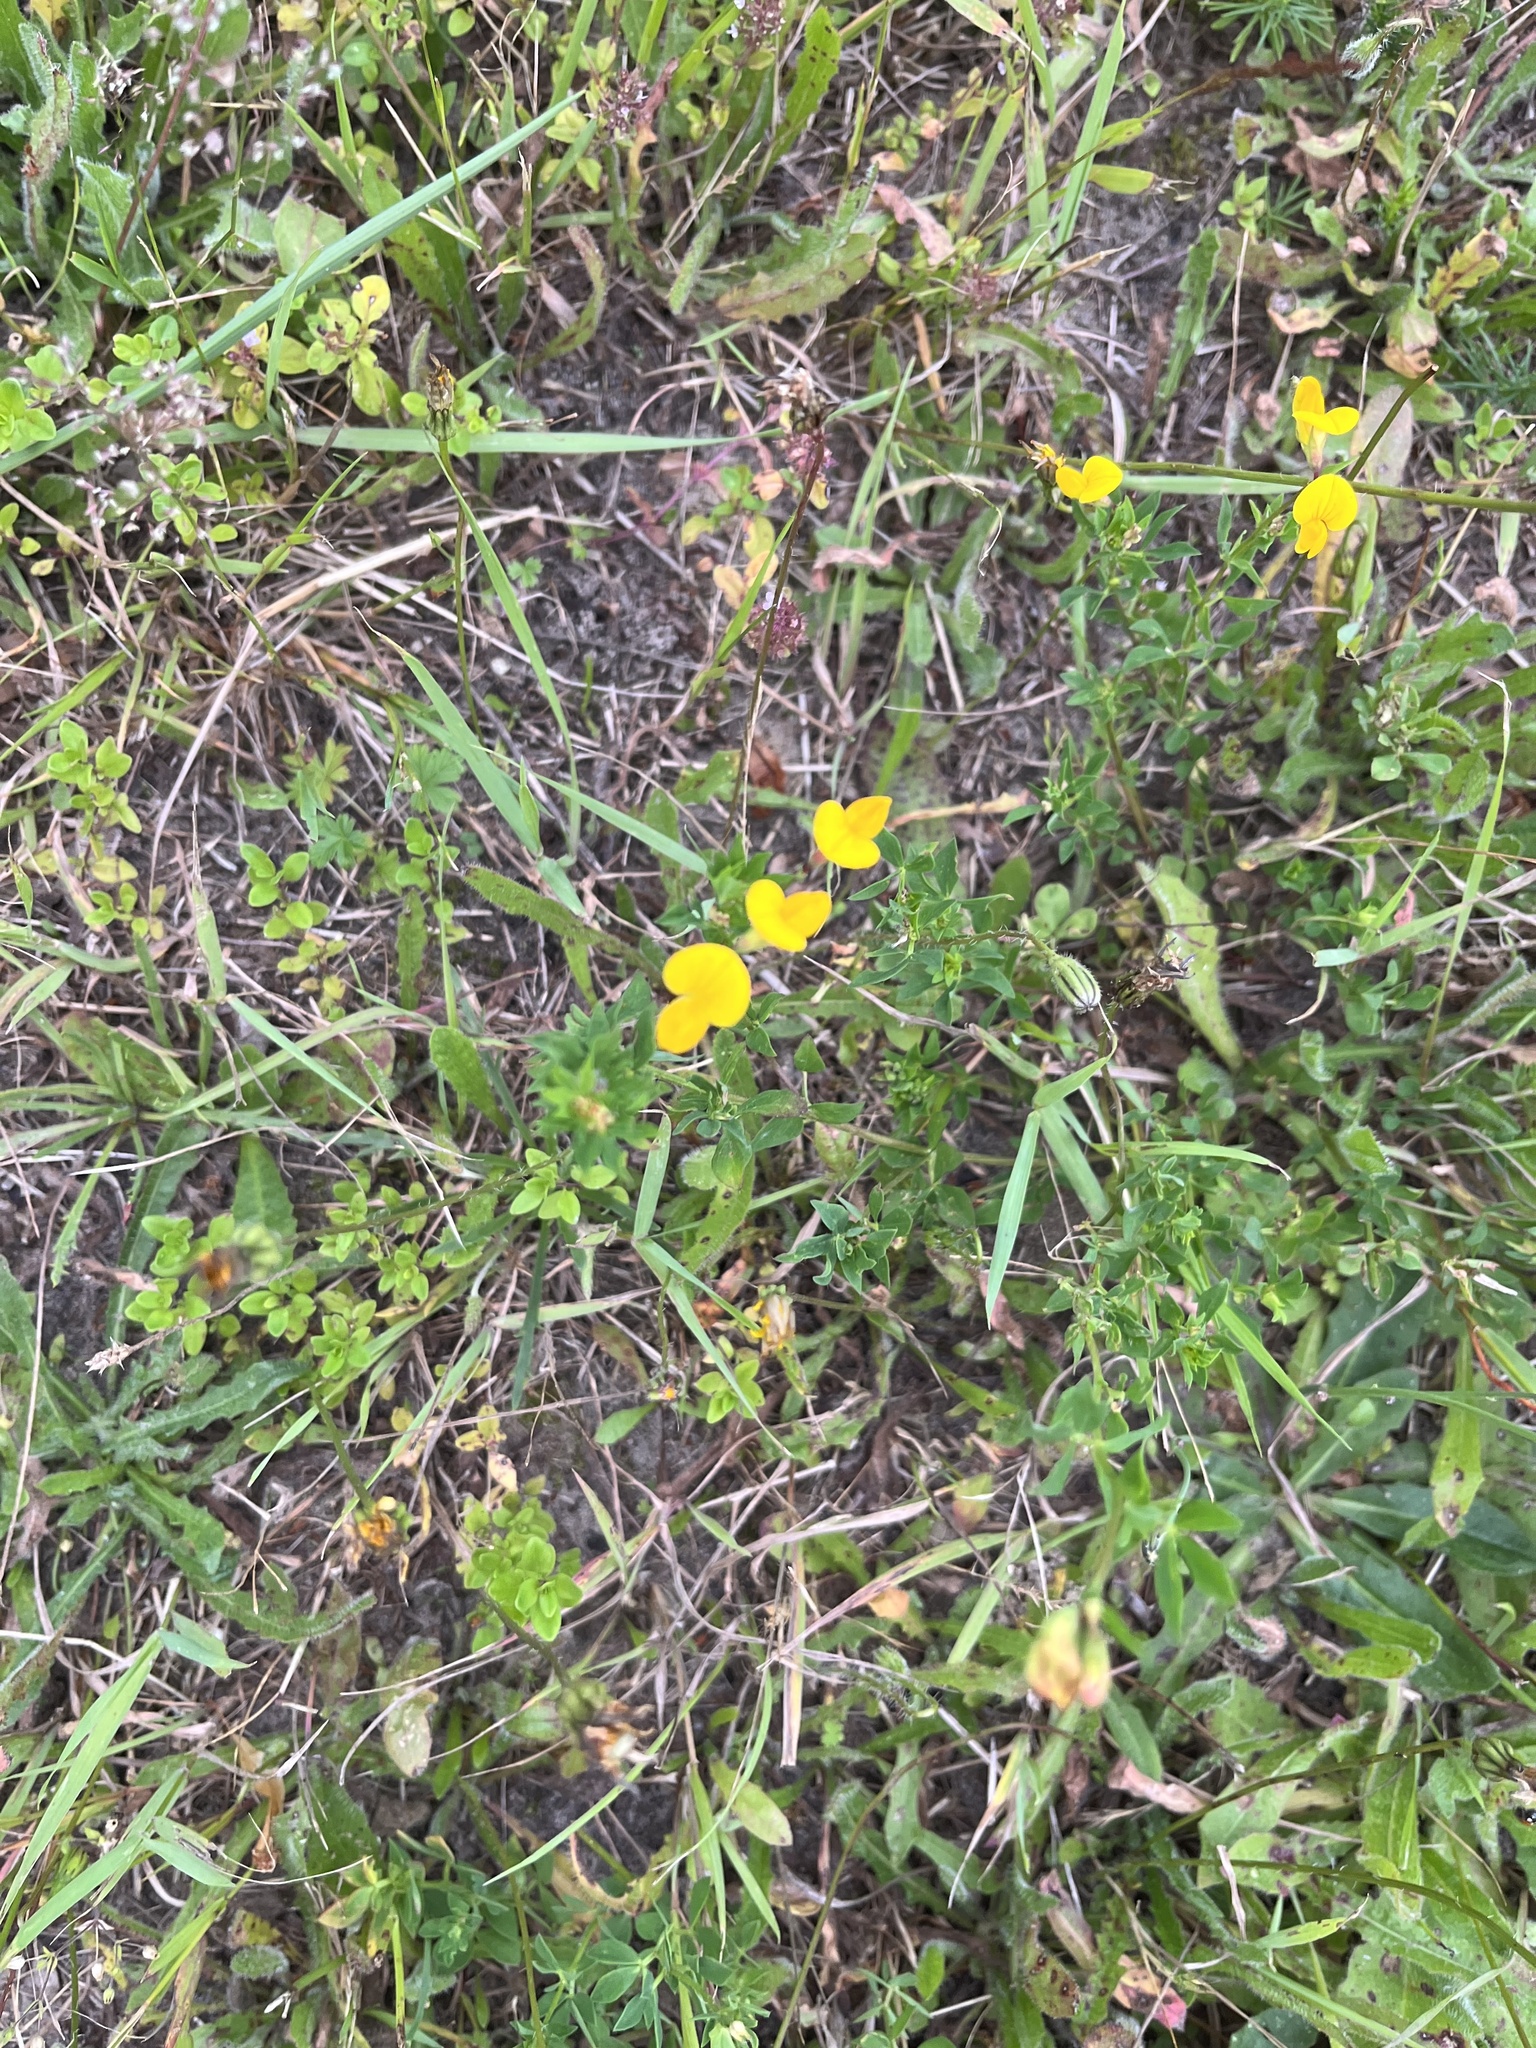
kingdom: Plantae
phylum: Tracheophyta
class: Magnoliopsida
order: Fabales
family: Fabaceae
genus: Lotus
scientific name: Lotus corniculatus
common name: Common bird's-foot-trefoil
